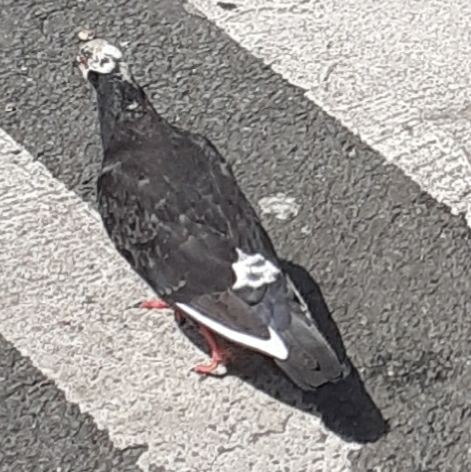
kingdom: Animalia
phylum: Chordata
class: Aves
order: Columbiformes
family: Columbidae
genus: Columba
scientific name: Columba livia
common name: Rock pigeon
